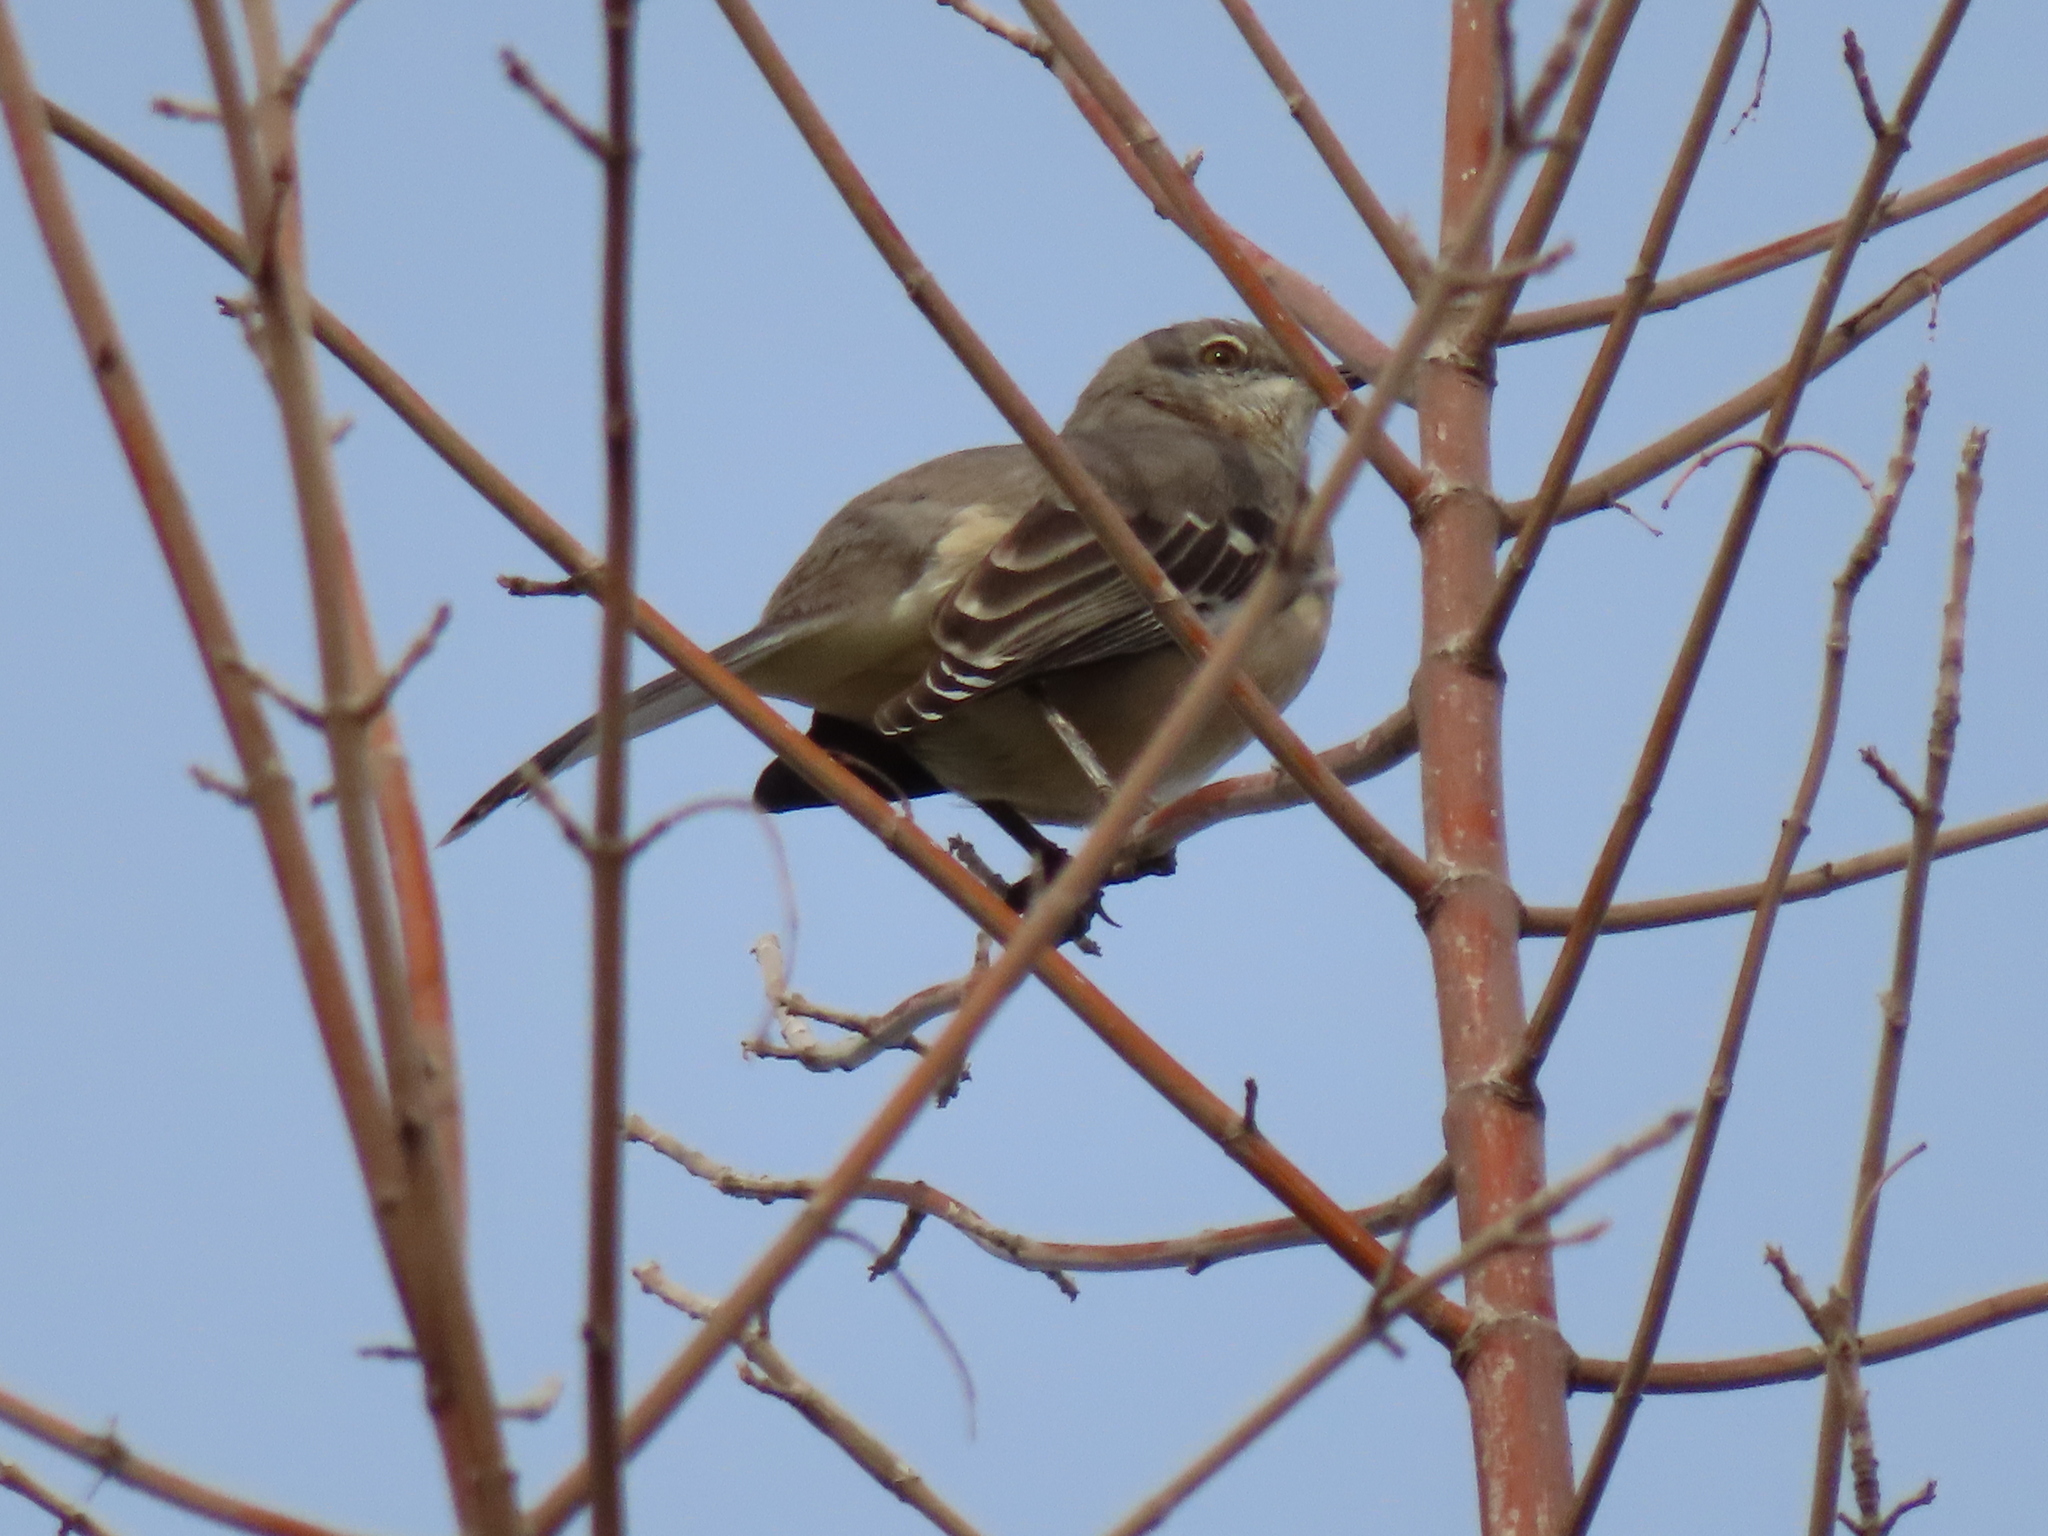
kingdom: Animalia
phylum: Chordata
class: Aves
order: Passeriformes
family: Mimidae
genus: Mimus
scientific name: Mimus polyglottos
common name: Northern mockingbird
